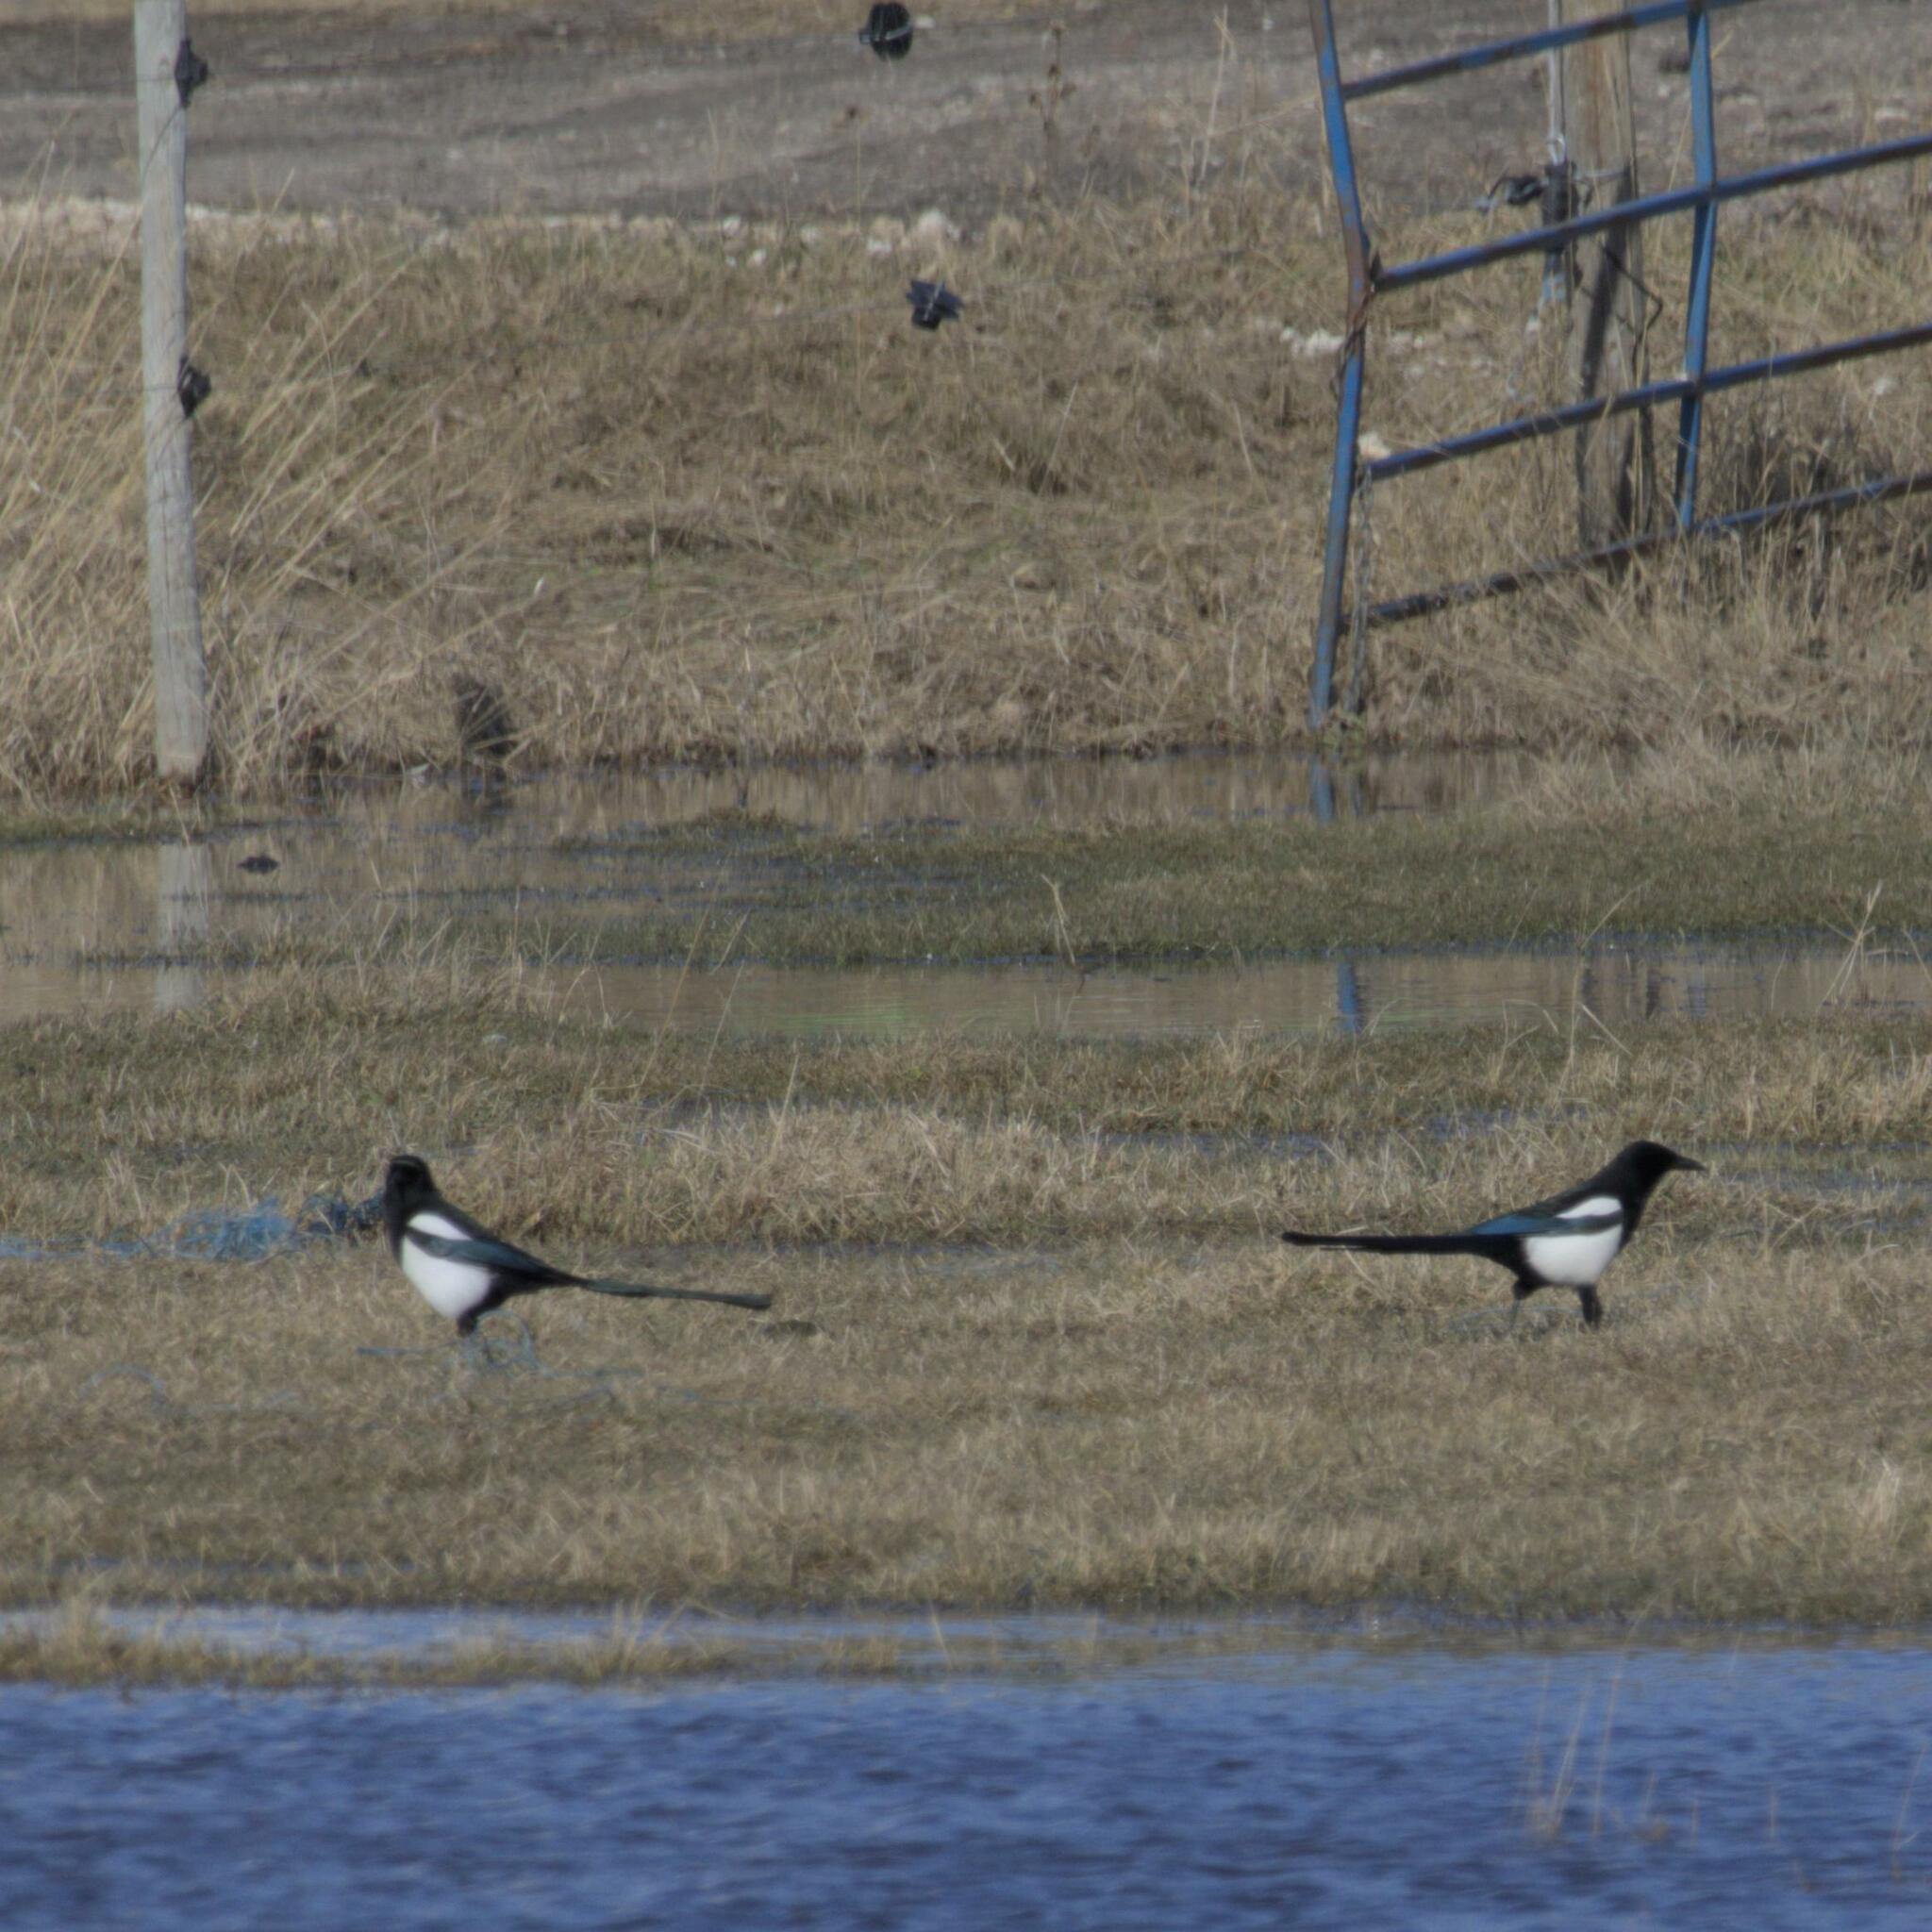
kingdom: Animalia
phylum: Chordata
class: Aves
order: Passeriformes
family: Corvidae
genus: Pica
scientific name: Pica hudsonia
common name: Black-billed magpie
